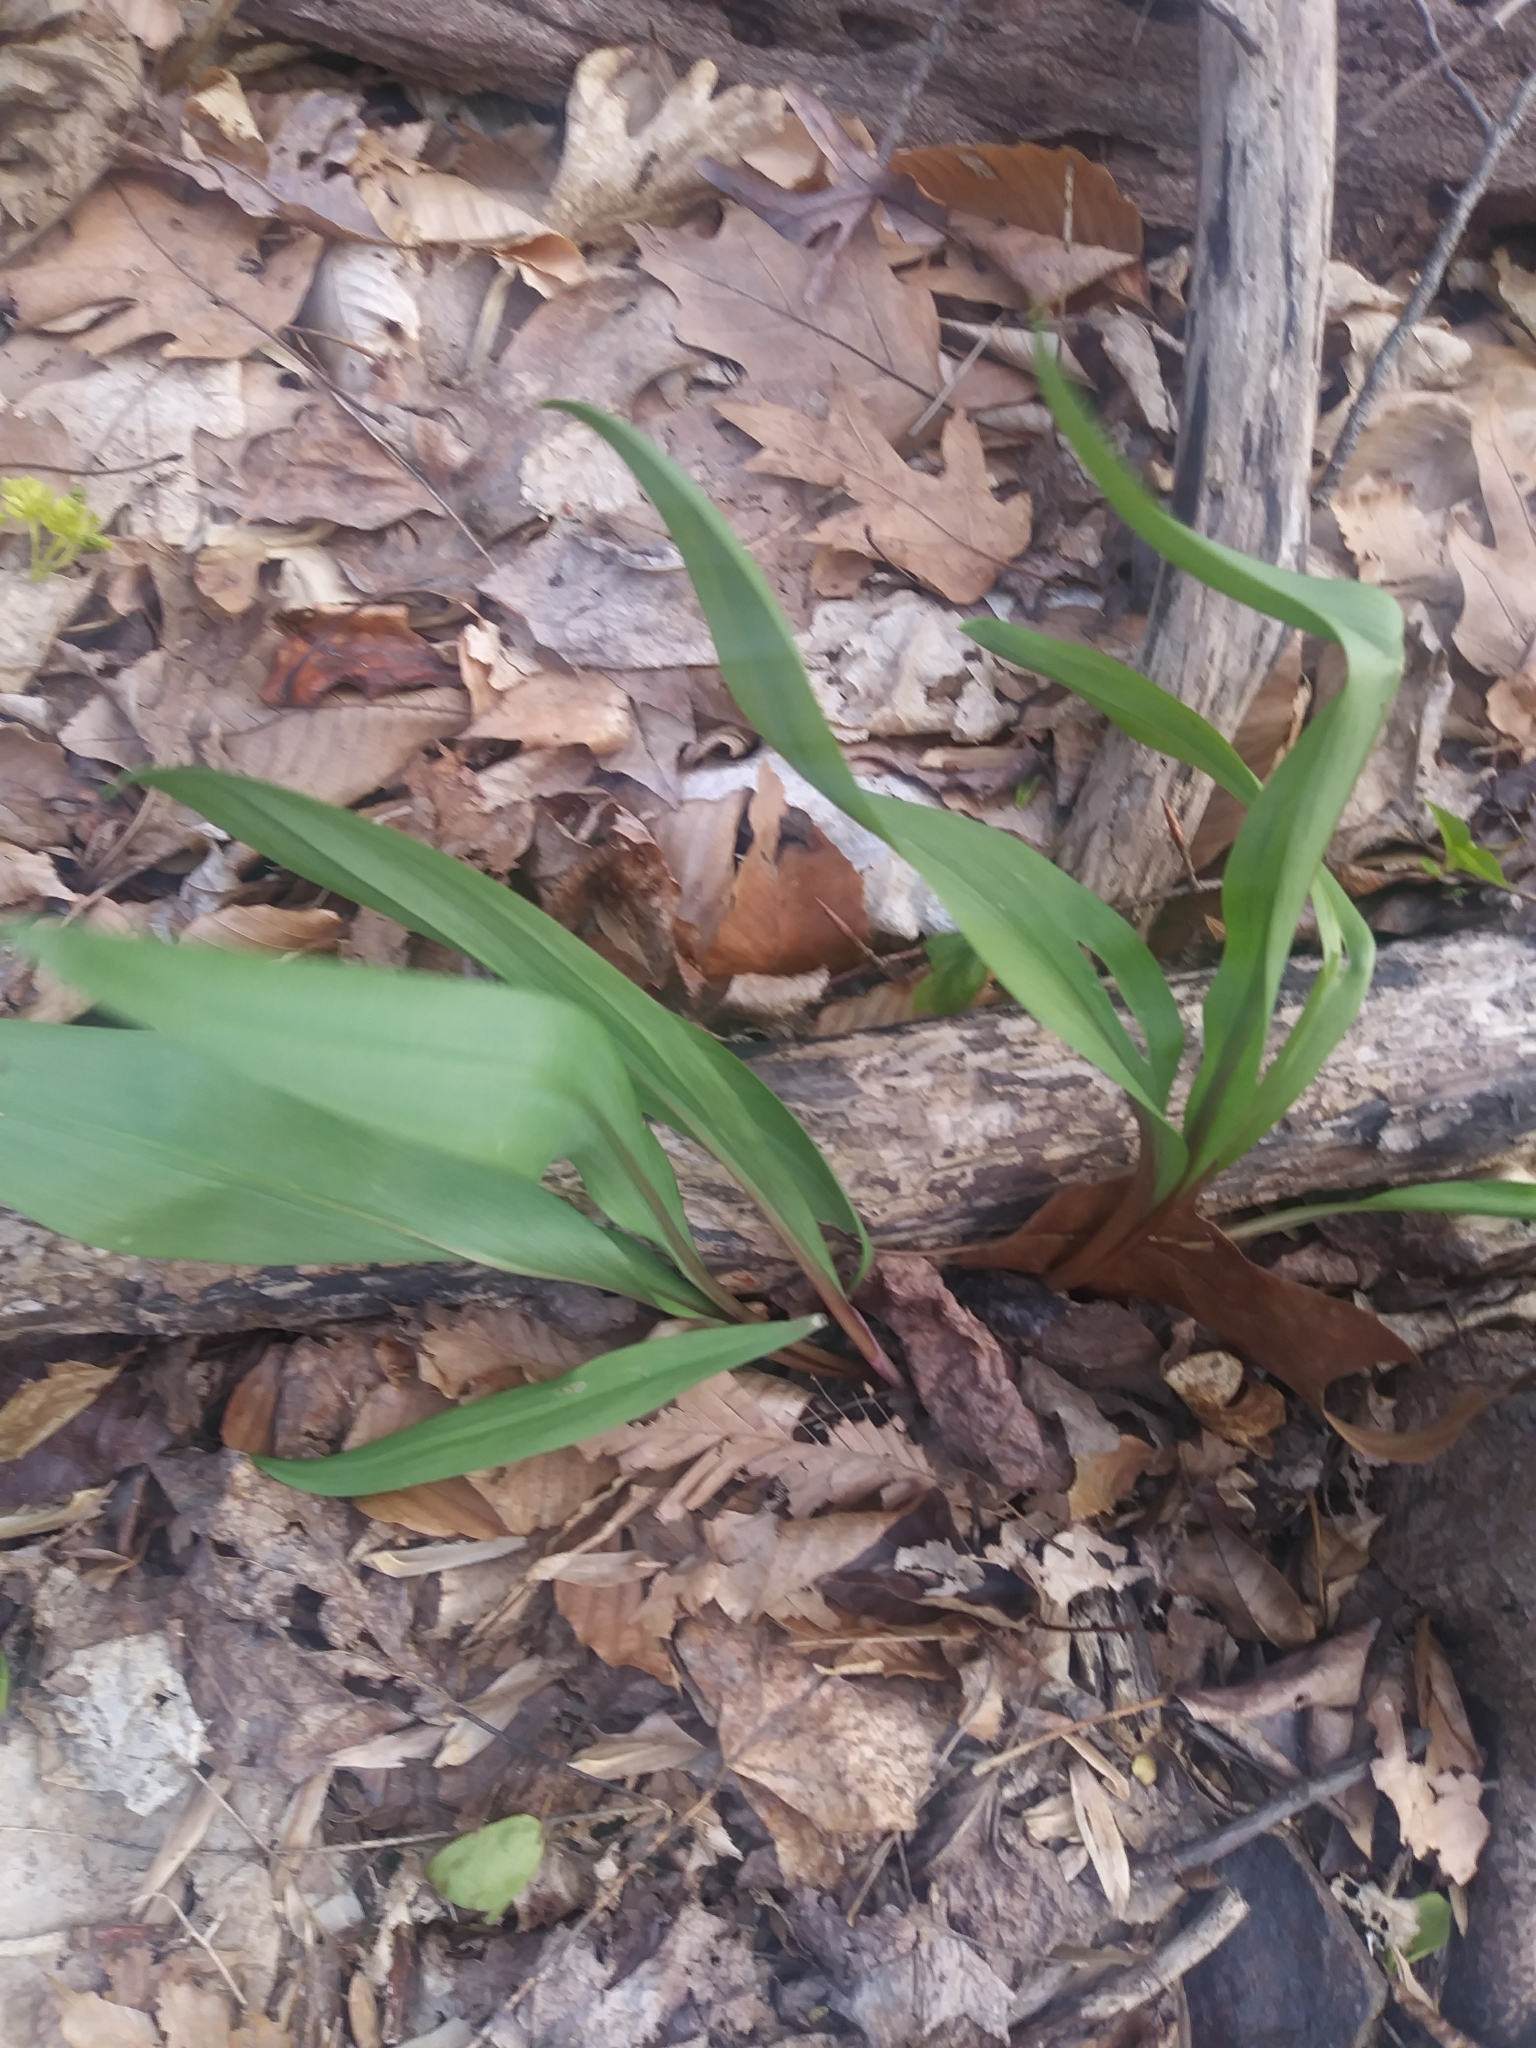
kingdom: Plantae
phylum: Tracheophyta
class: Liliopsida
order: Asparagales
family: Amaryllidaceae
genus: Allium
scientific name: Allium tricoccum
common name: Ramp
